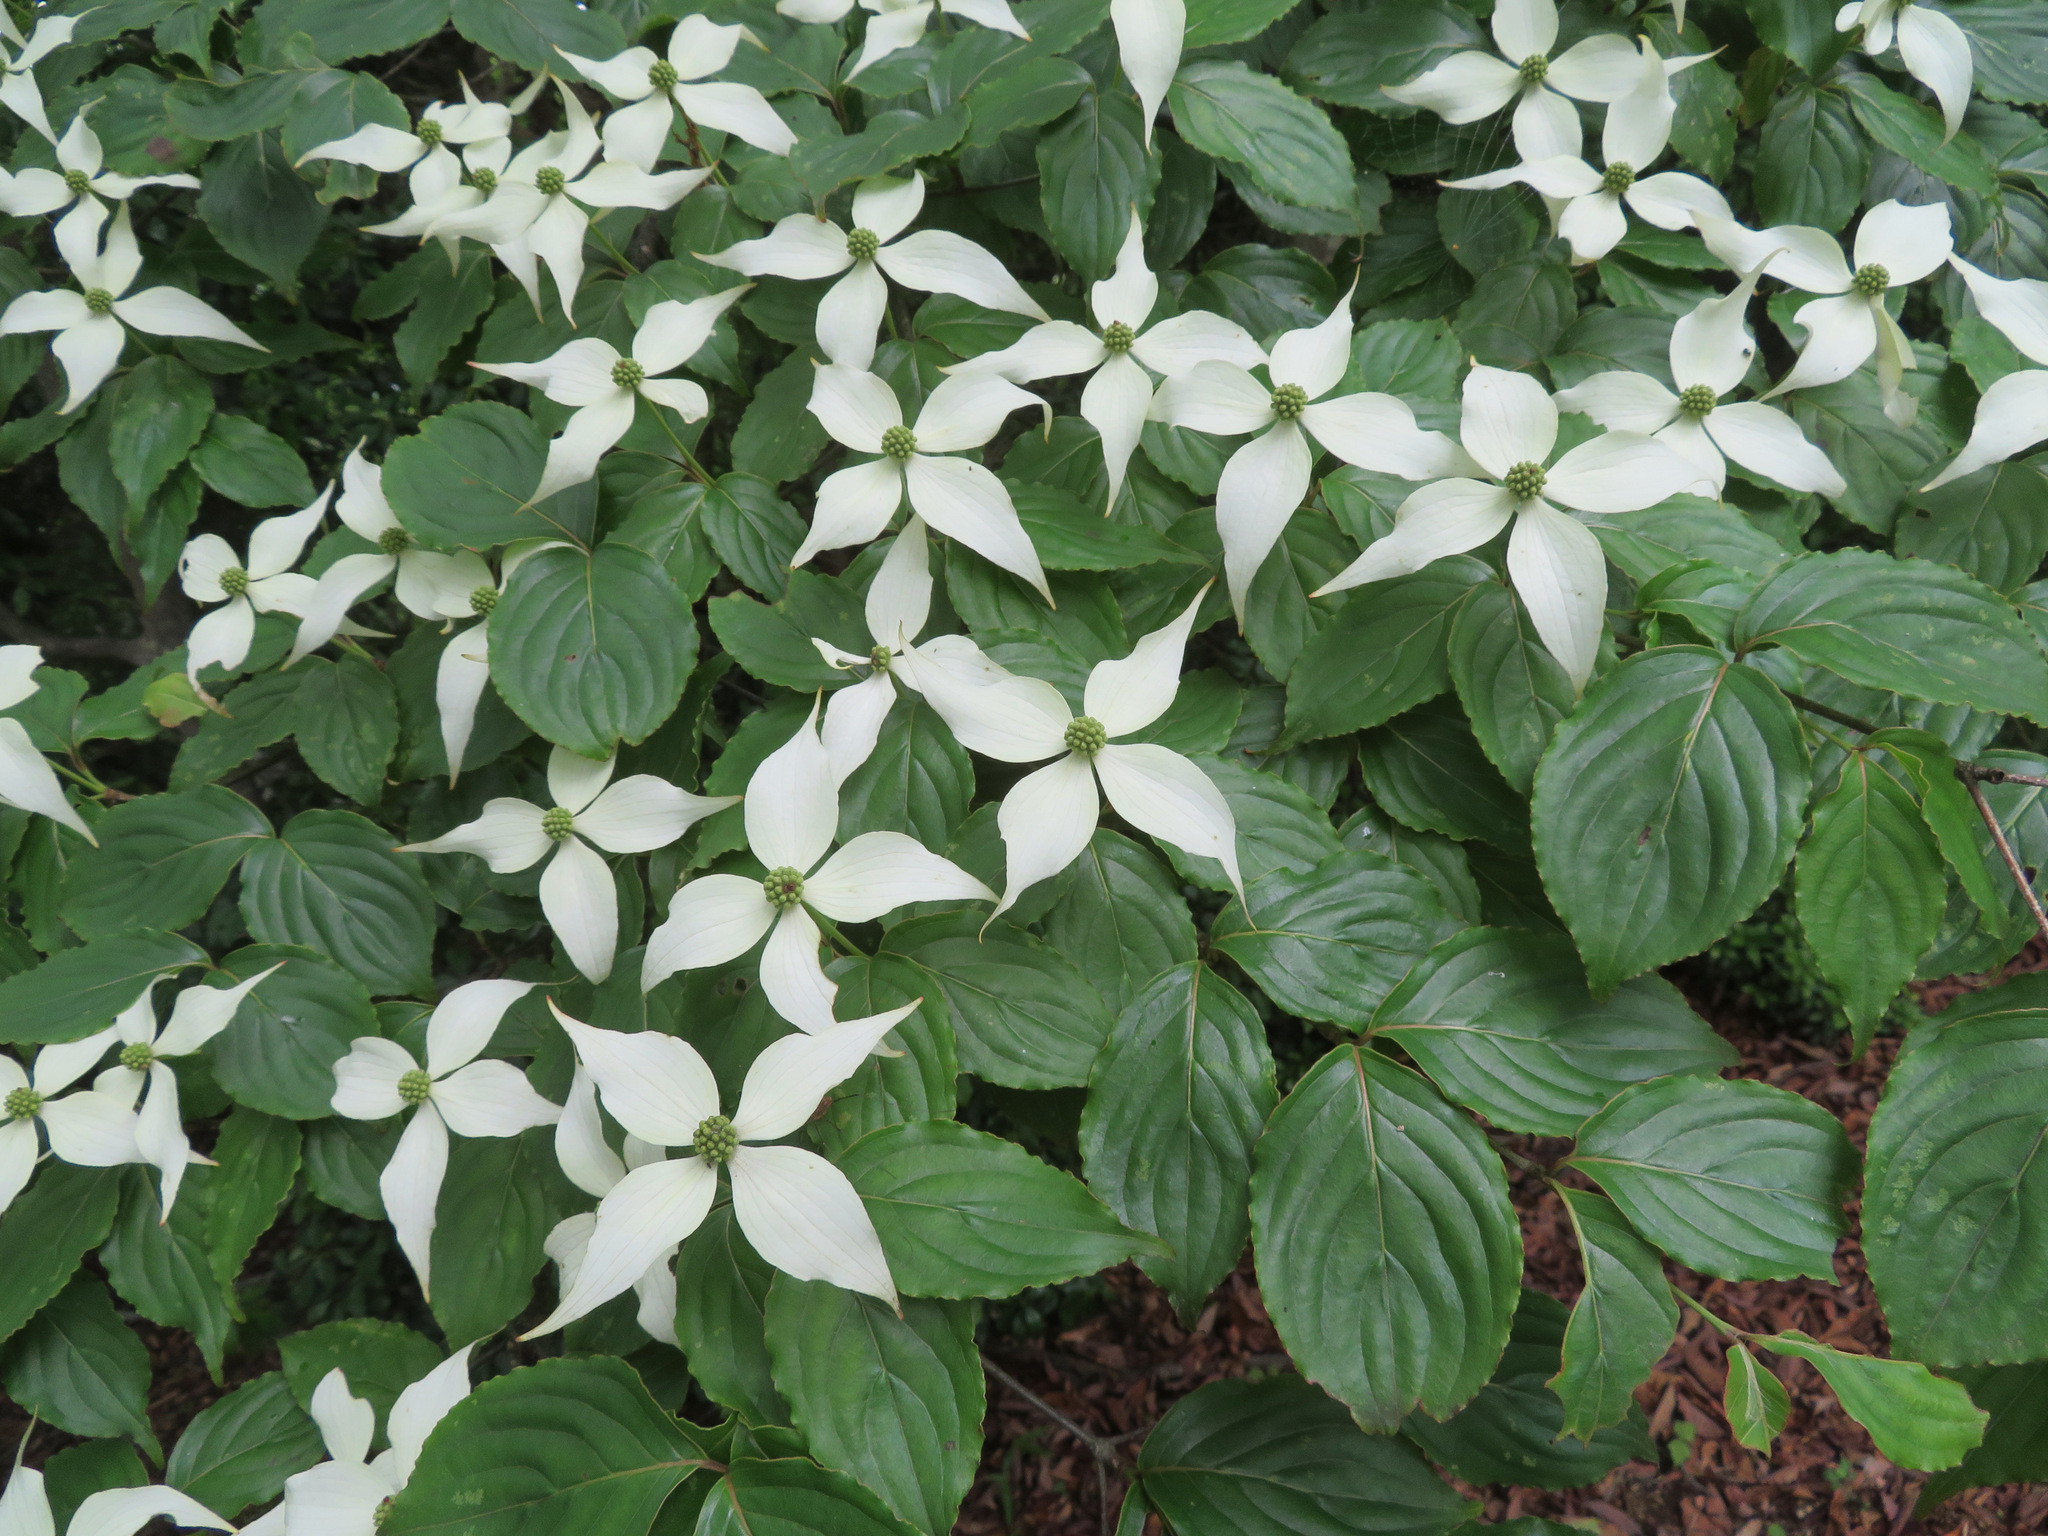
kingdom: Plantae
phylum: Tracheophyta
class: Magnoliopsida
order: Cornales
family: Cornaceae
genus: Cornus
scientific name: Cornus kousa
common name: Japanese dogwood
